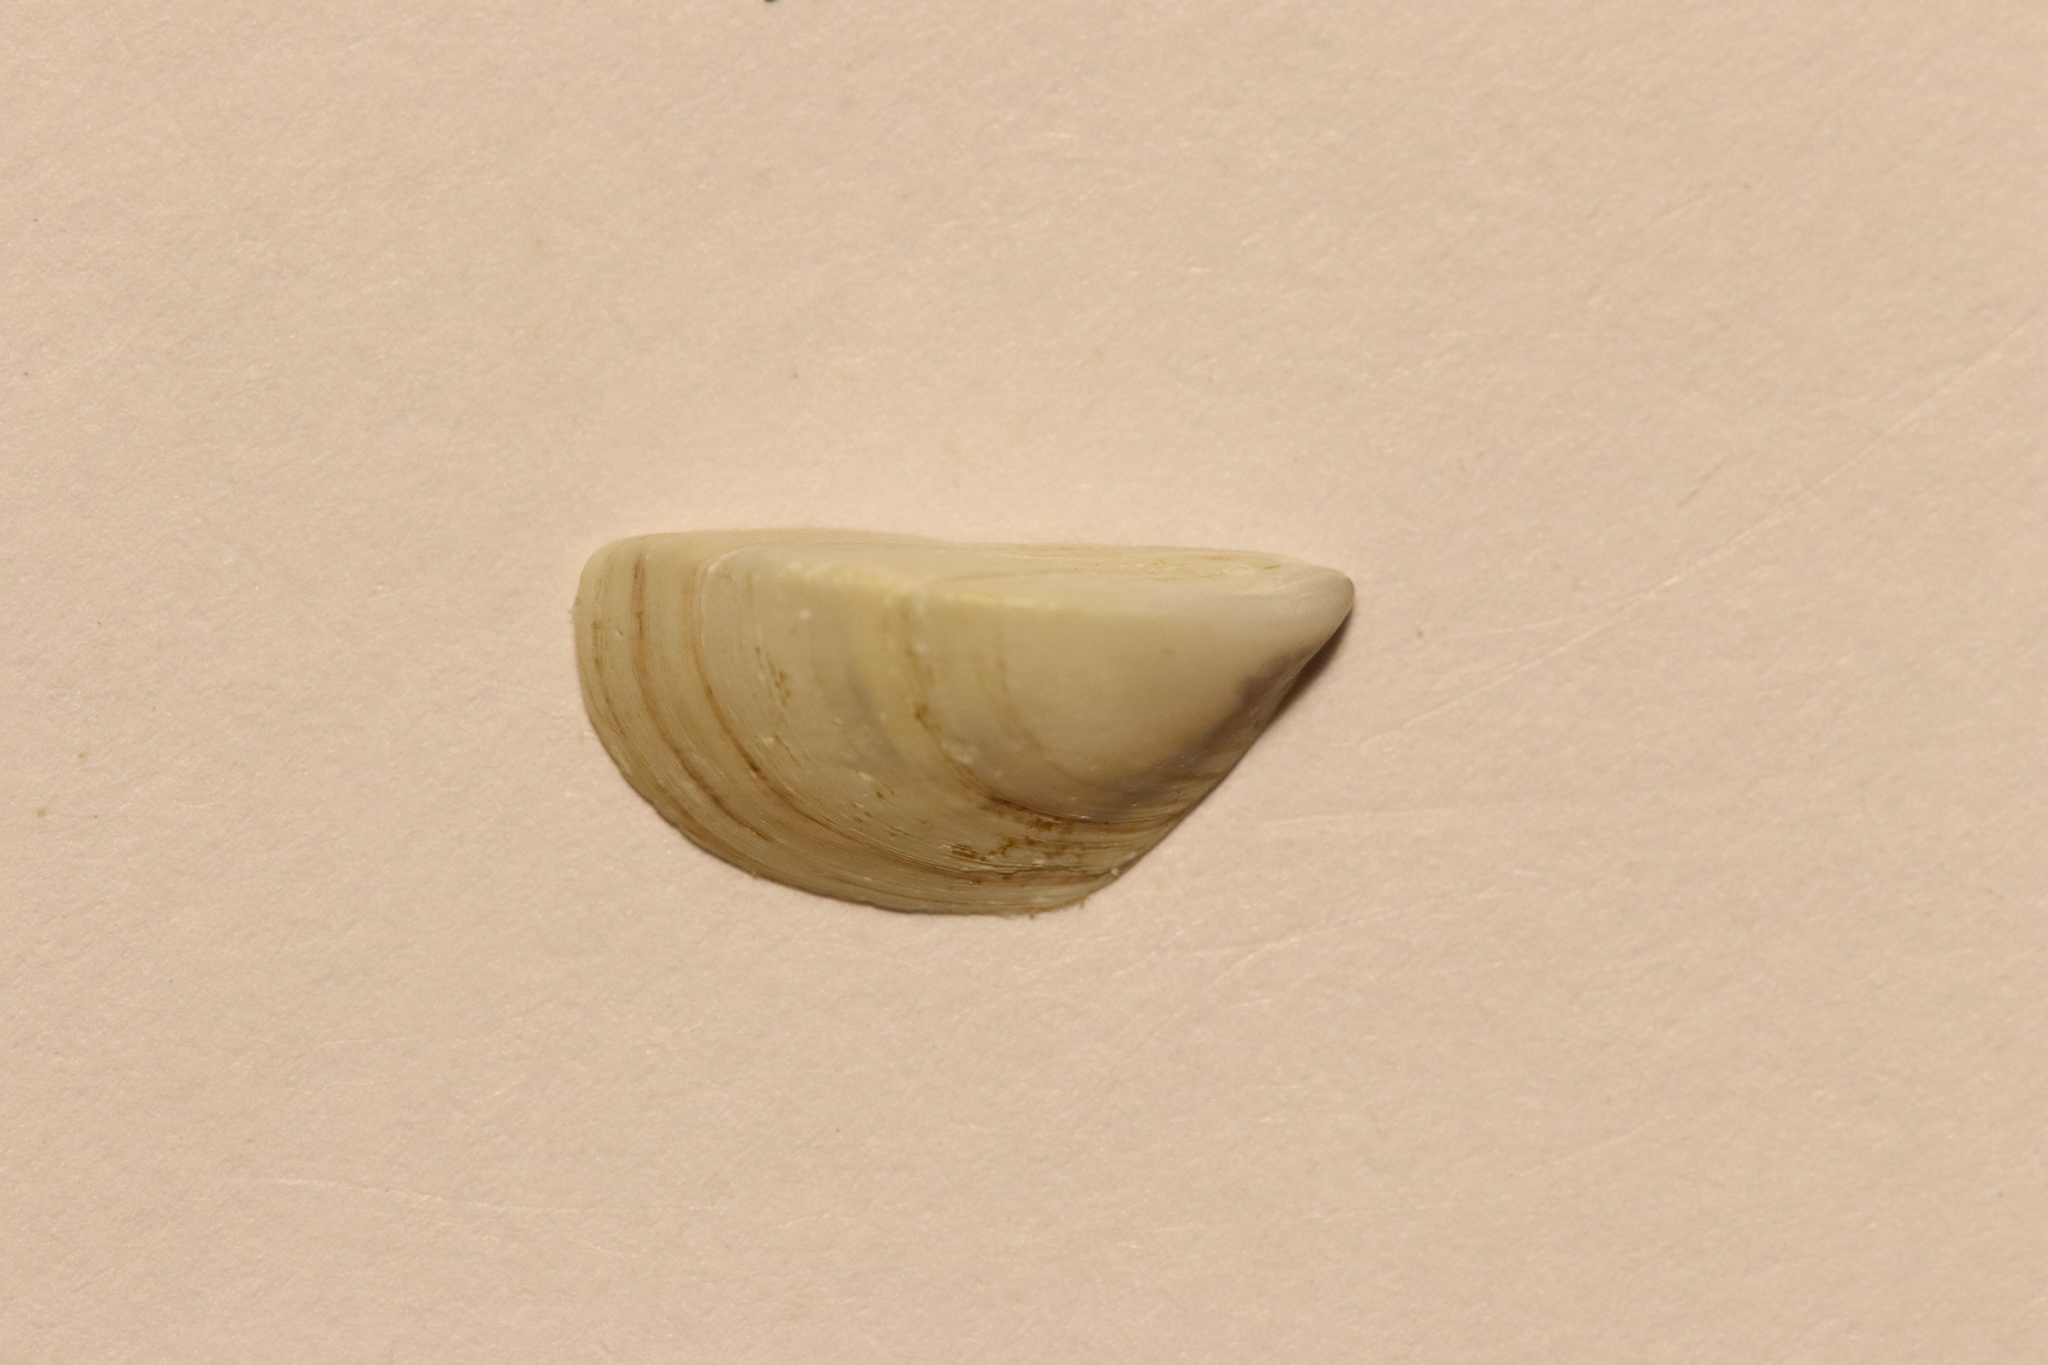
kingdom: Animalia
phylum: Mollusca
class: Bivalvia
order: Myida
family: Dreissenidae
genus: Dreissena
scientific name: Dreissena polymorpha
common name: Zebra mussel
